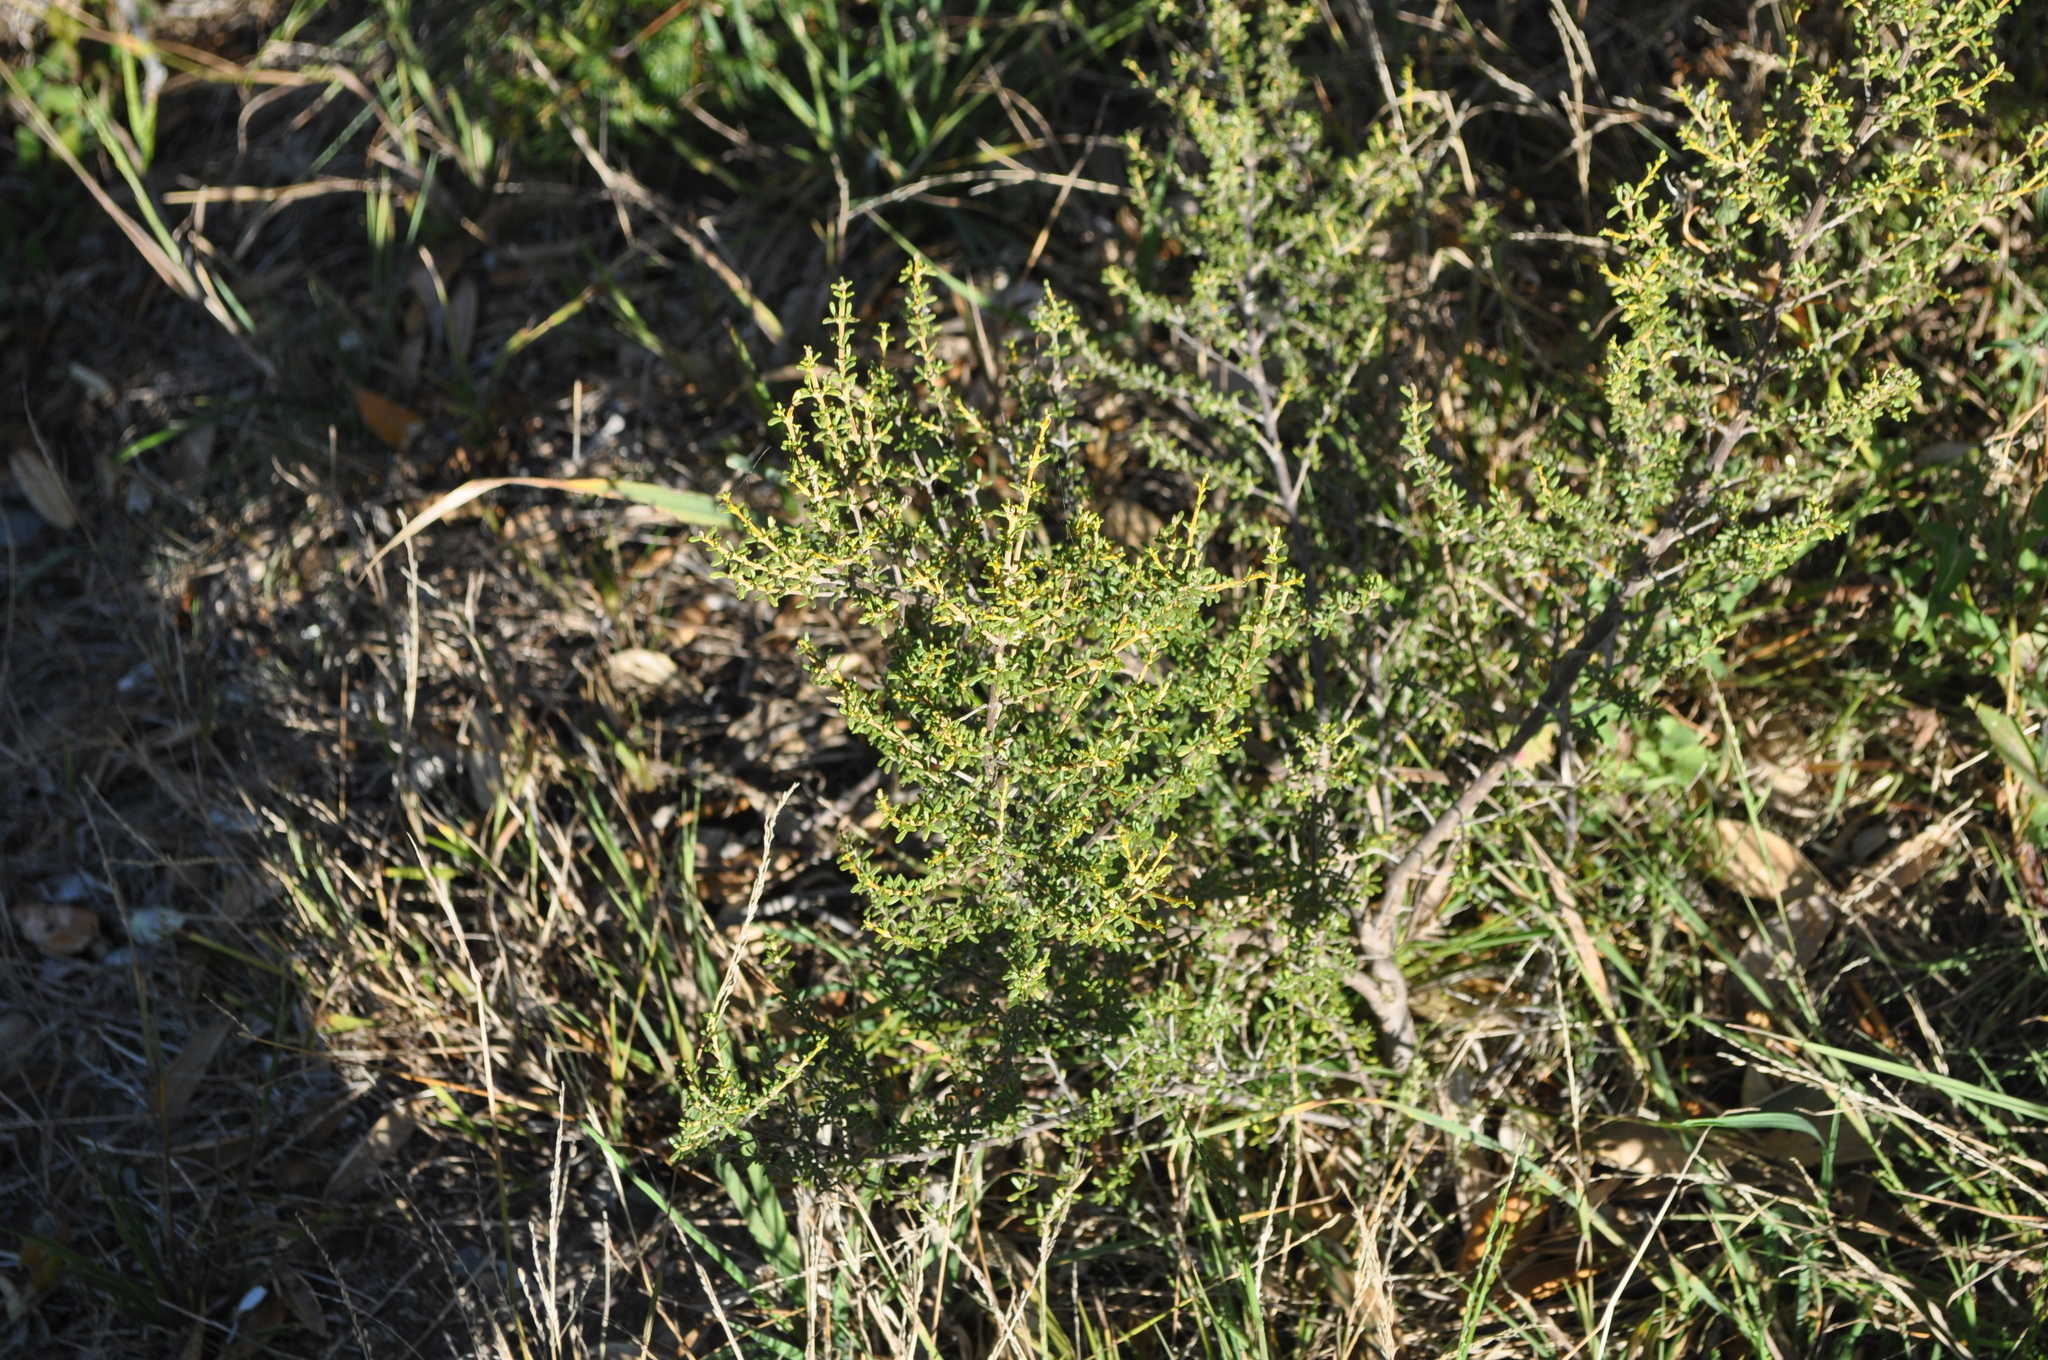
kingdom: Plantae
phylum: Tracheophyta
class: Magnoliopsida
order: Asterales
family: Asteraceae
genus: Olearia
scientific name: Olearia solandri
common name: Coastal daisybush
